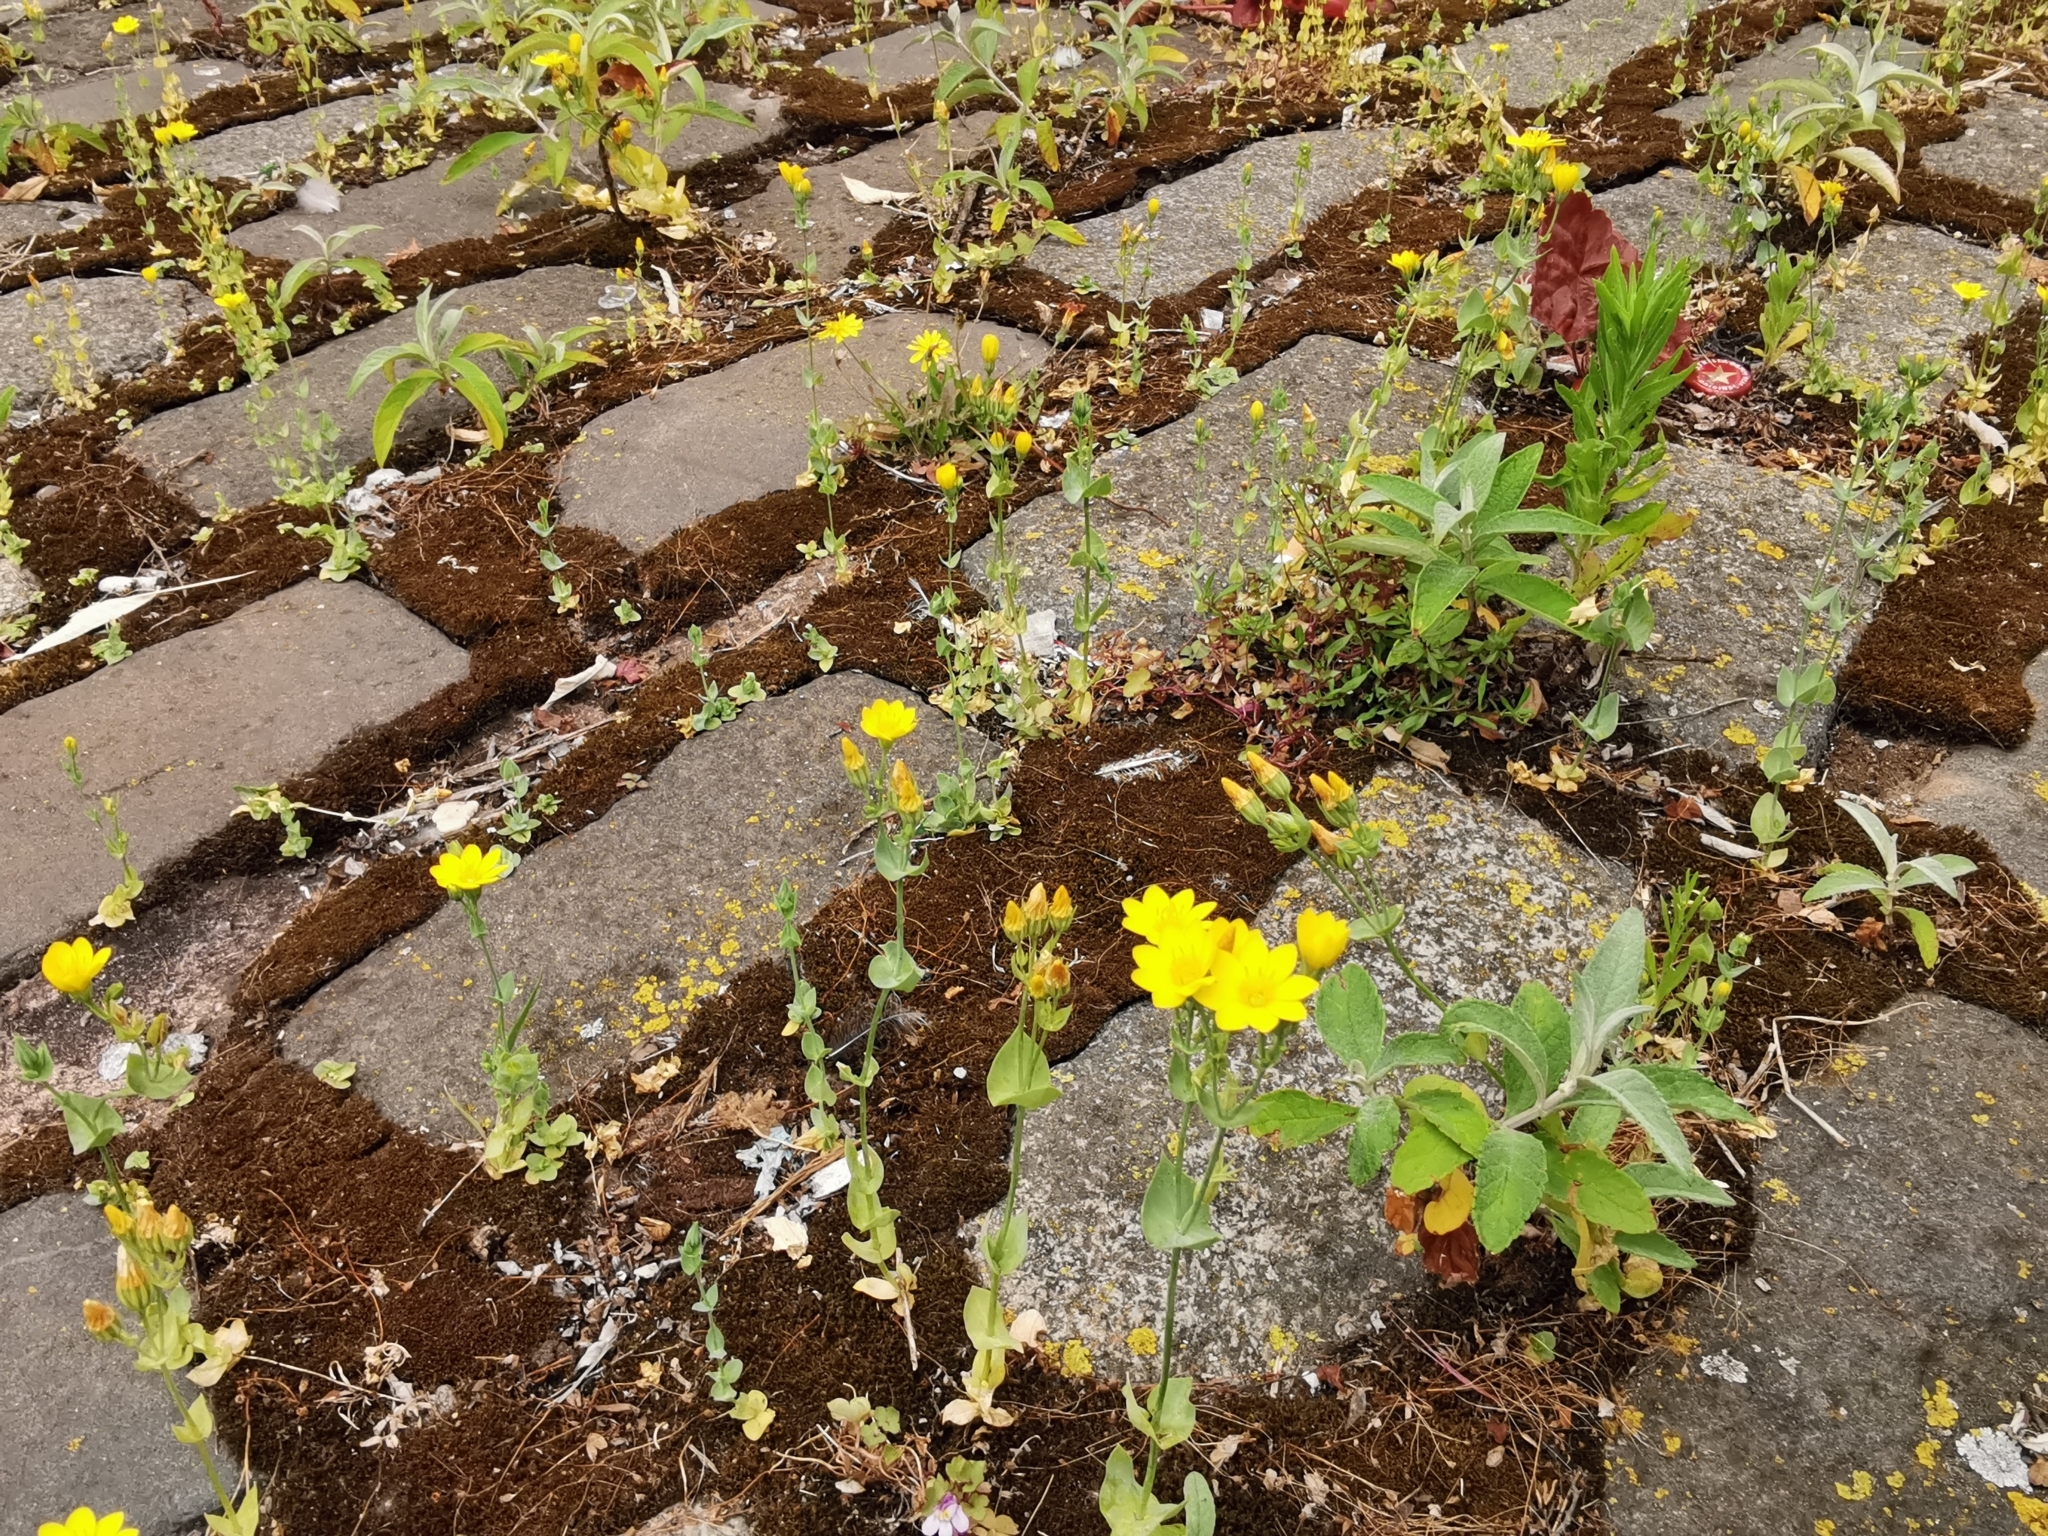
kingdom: Plantae
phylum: Tracheophyta
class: Magnoliopsida
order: Gentianales
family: Gentianaceae
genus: Blackstonia
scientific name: Blackstonia perfoliata
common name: Yellow-wort
